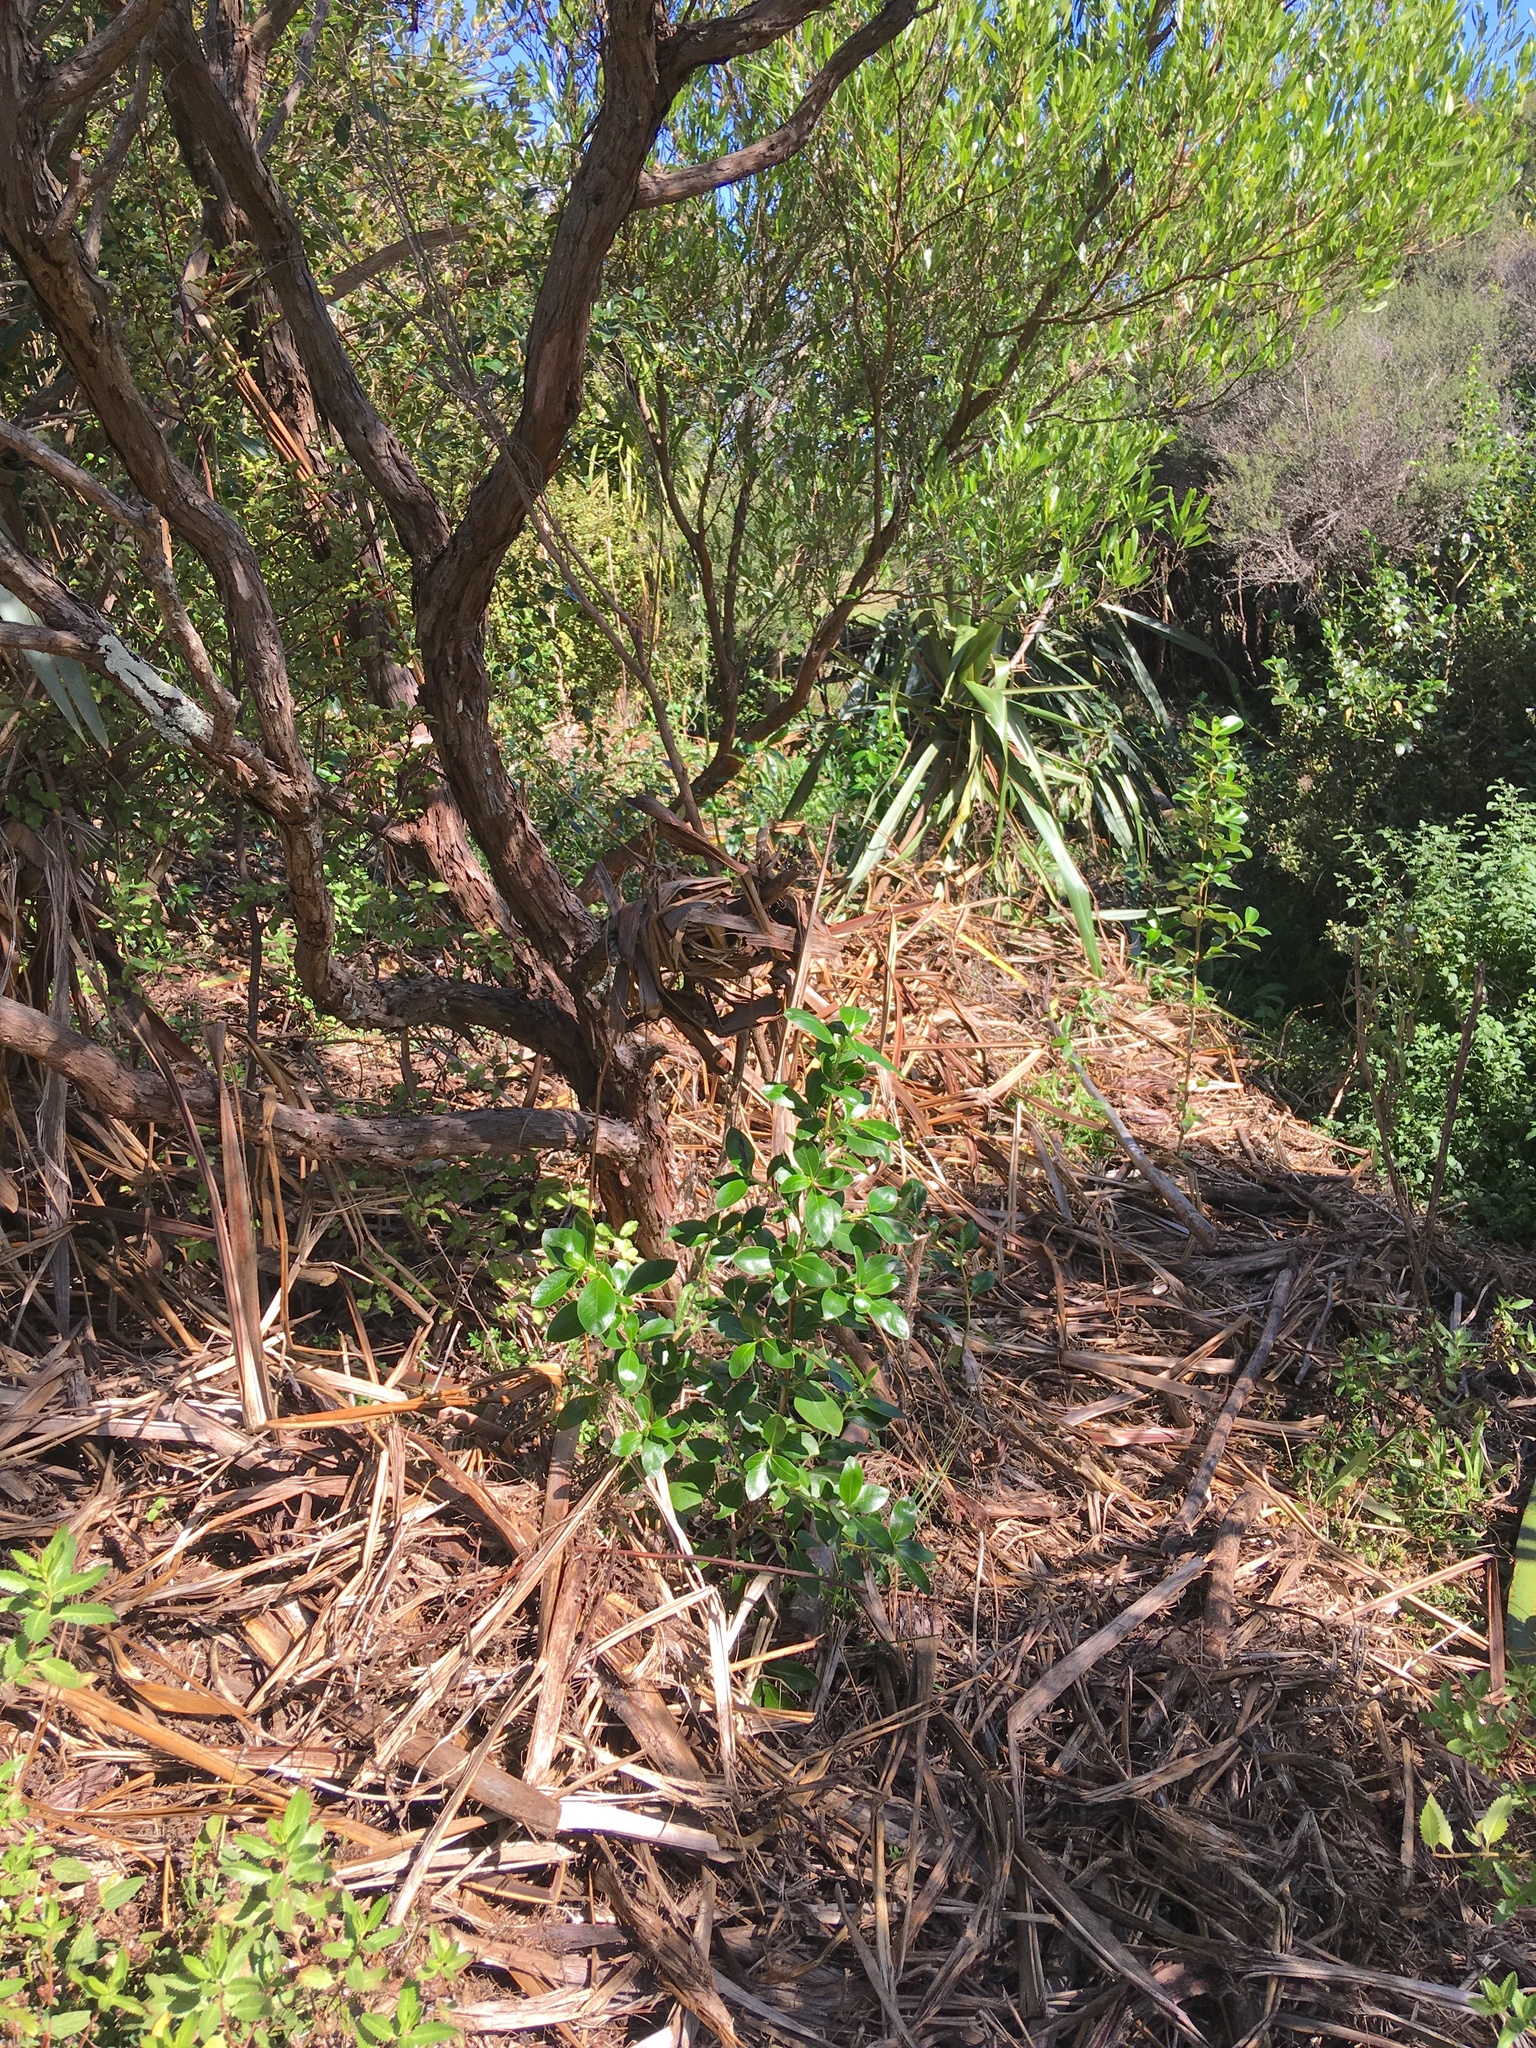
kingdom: Plantae
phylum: Tracheophyta
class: Magnoliopsida
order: Gentianales
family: Rubiaceae
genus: Coprosma
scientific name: Coprosma robusta
